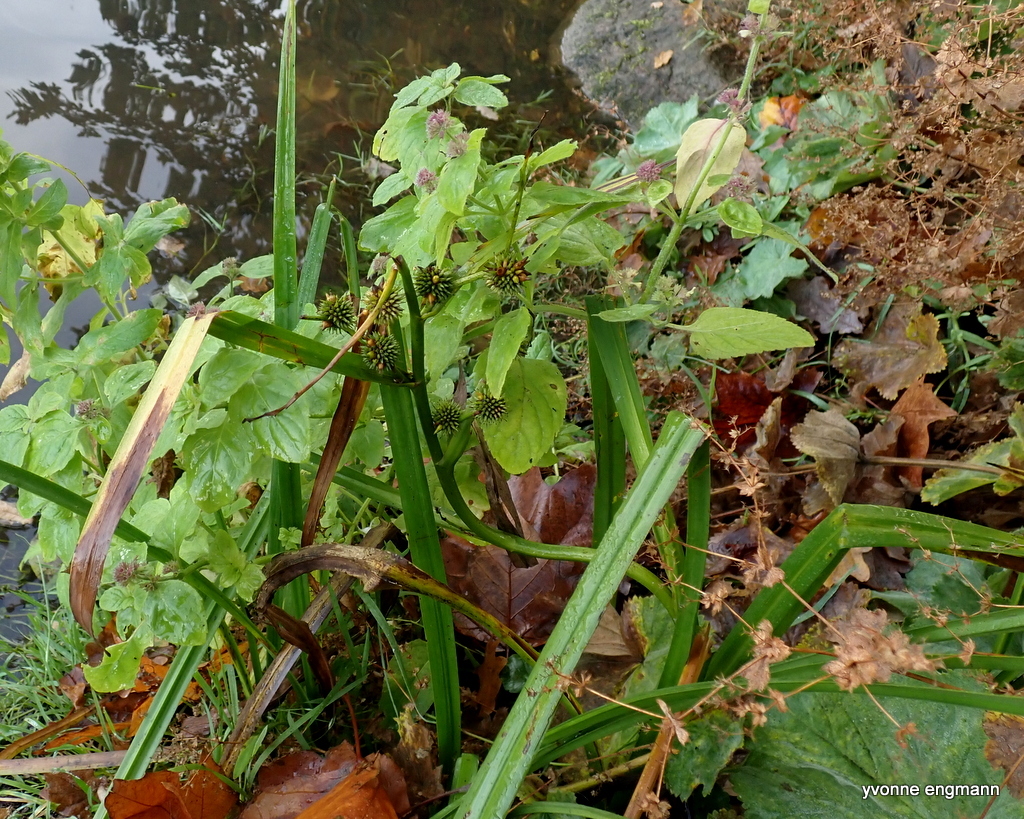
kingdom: Plantae
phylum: Tracheophyta
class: Liliopsida
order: Poales
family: Typhaceae
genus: Sparganium
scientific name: Sparganium erectum
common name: Branched bur-reed
